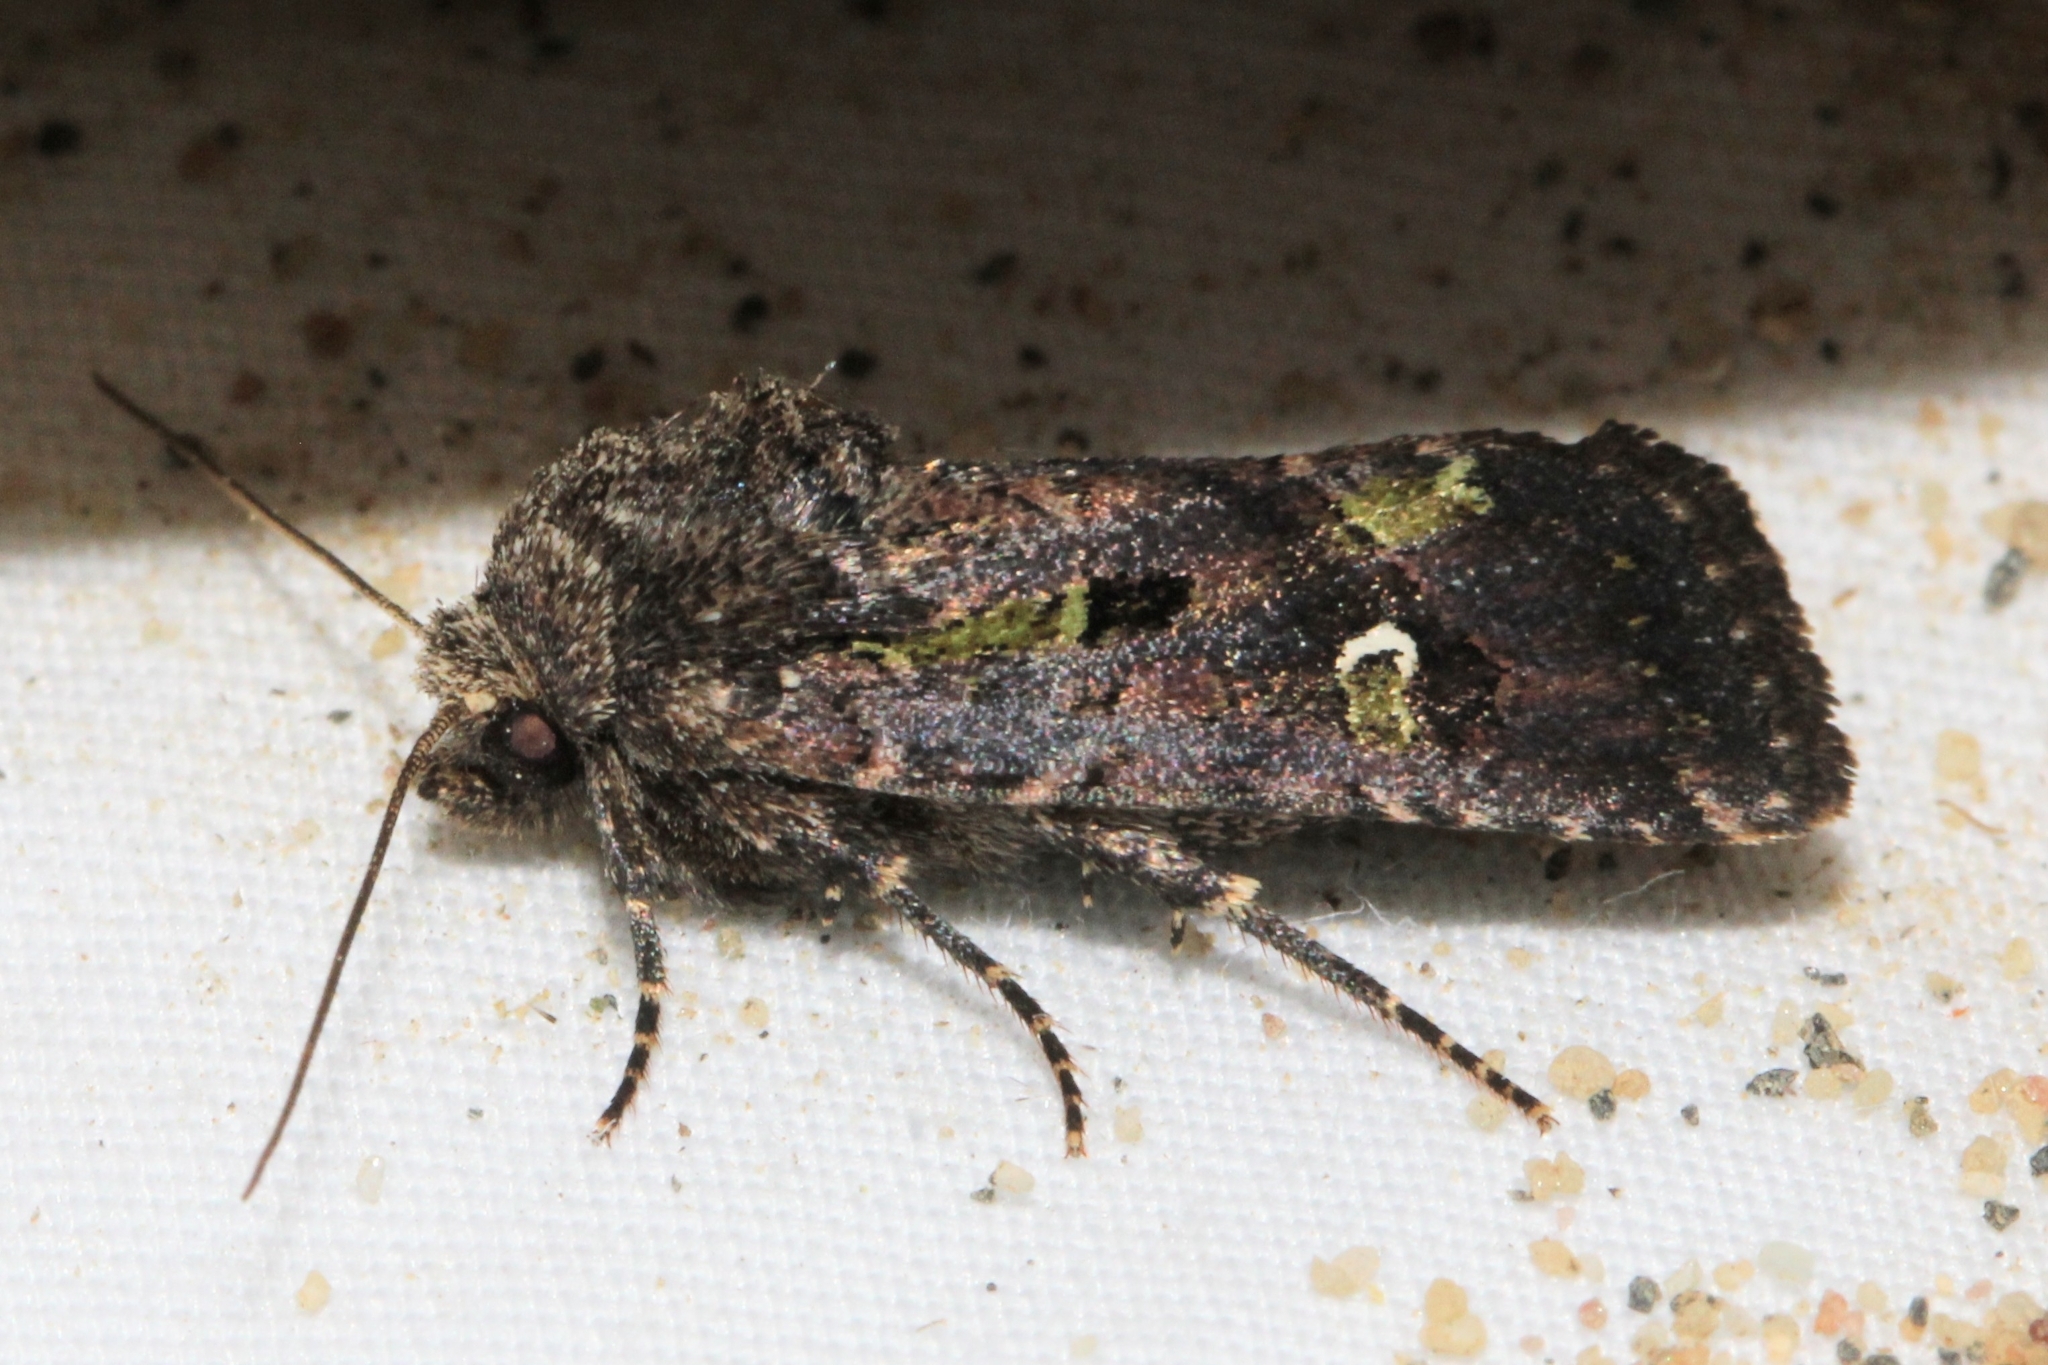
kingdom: Animalia
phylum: Arthropoda
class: Insecta
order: Lepidoptera
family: Noctuidae
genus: Lacinipolia
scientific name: Lacinipolia renigera
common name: Kidney-spotted minor
